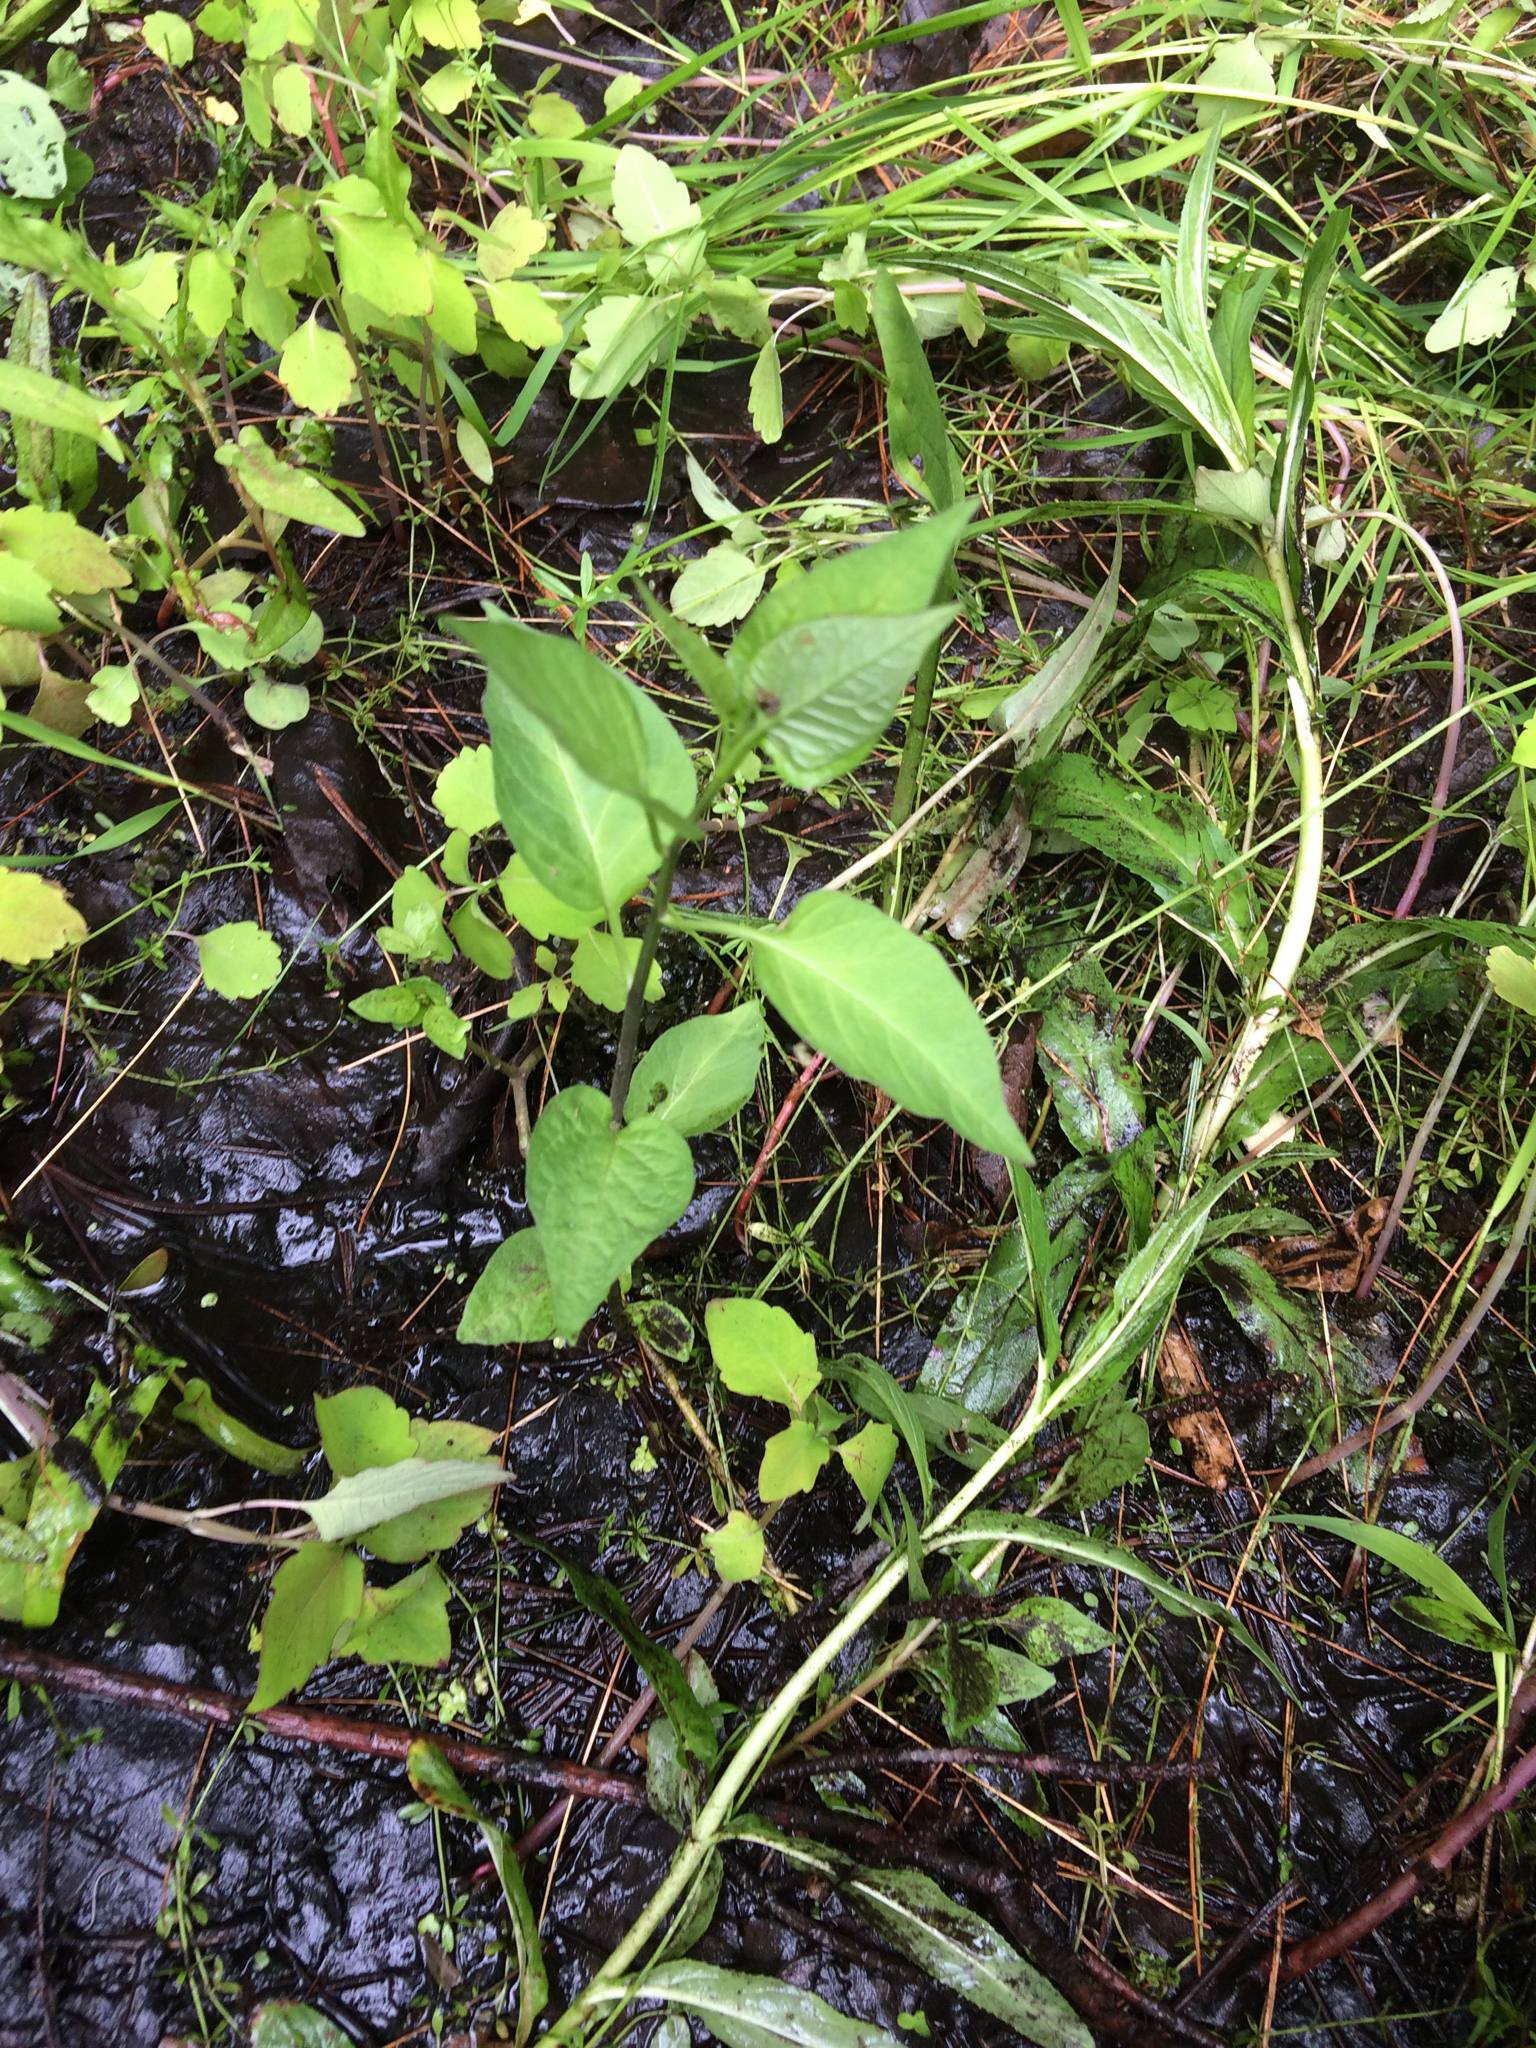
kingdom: Plantae
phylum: Tracheophyta
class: Magnoliopsida
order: Solanales
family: Solanaceae
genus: Solanum
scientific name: Solanum dulcamara
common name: Climbing nightshade
